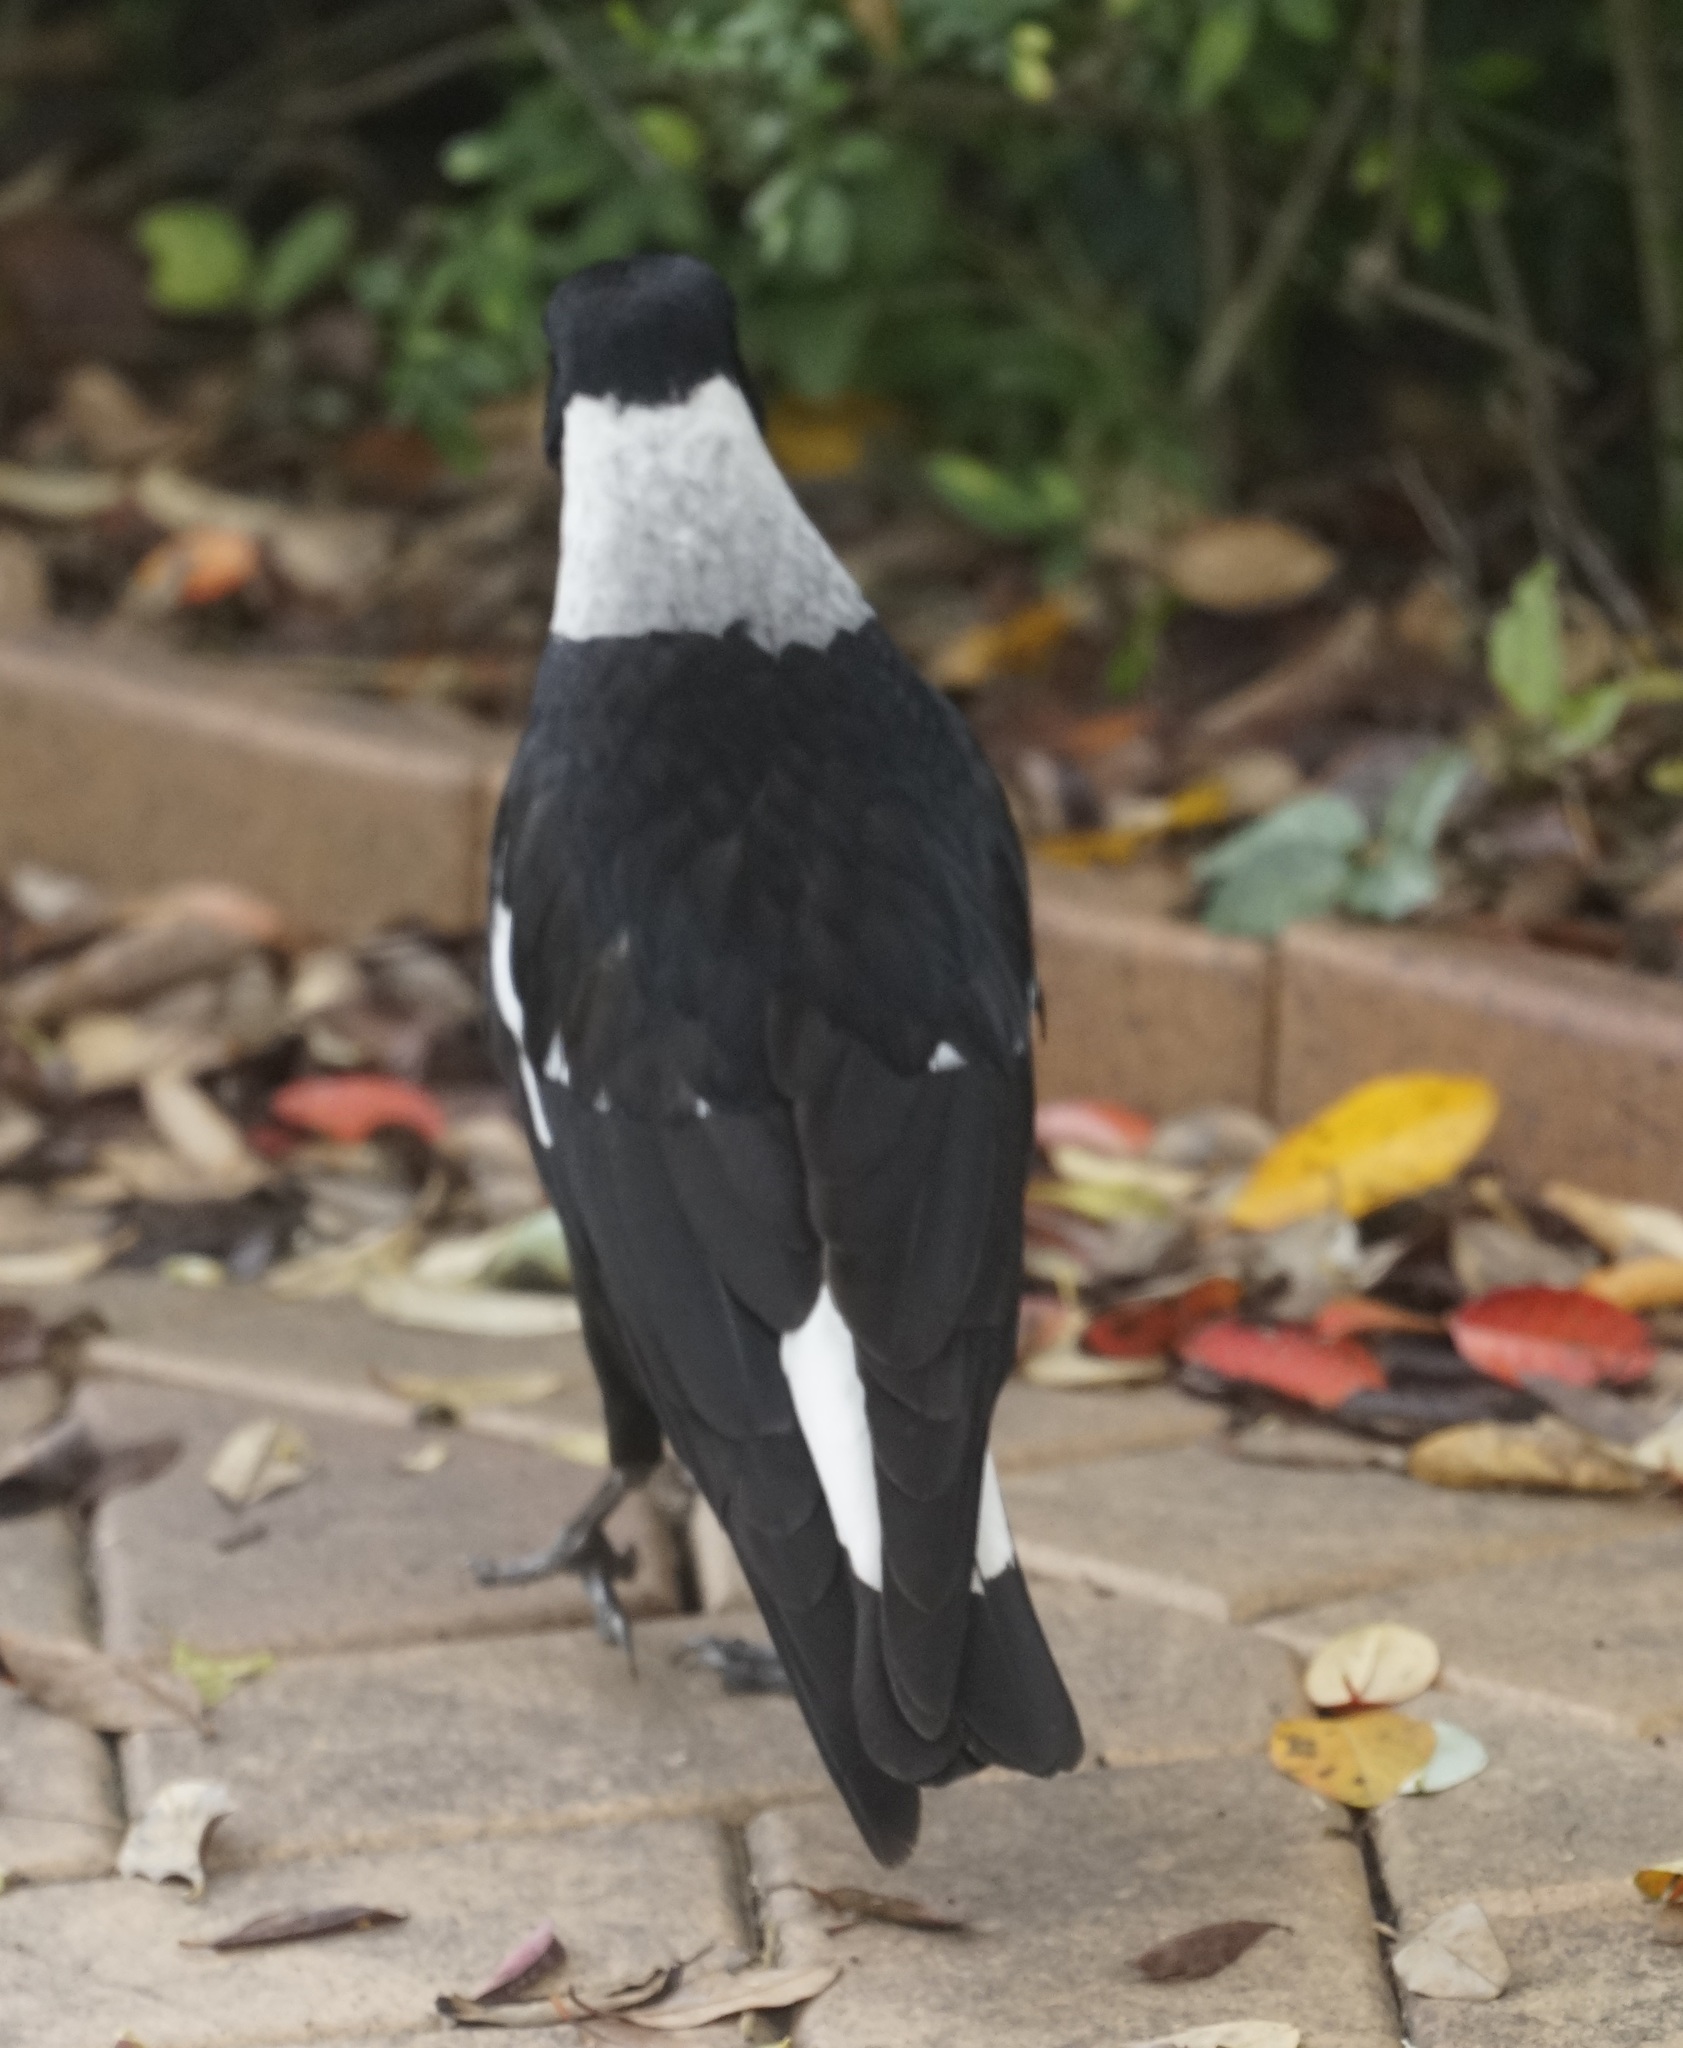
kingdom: Animalia
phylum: Chordata
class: Aves
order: Passeriformes
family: Cracticidae
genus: Gymnorhina
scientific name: Gymnorhina tibicen
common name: Australian magpie
